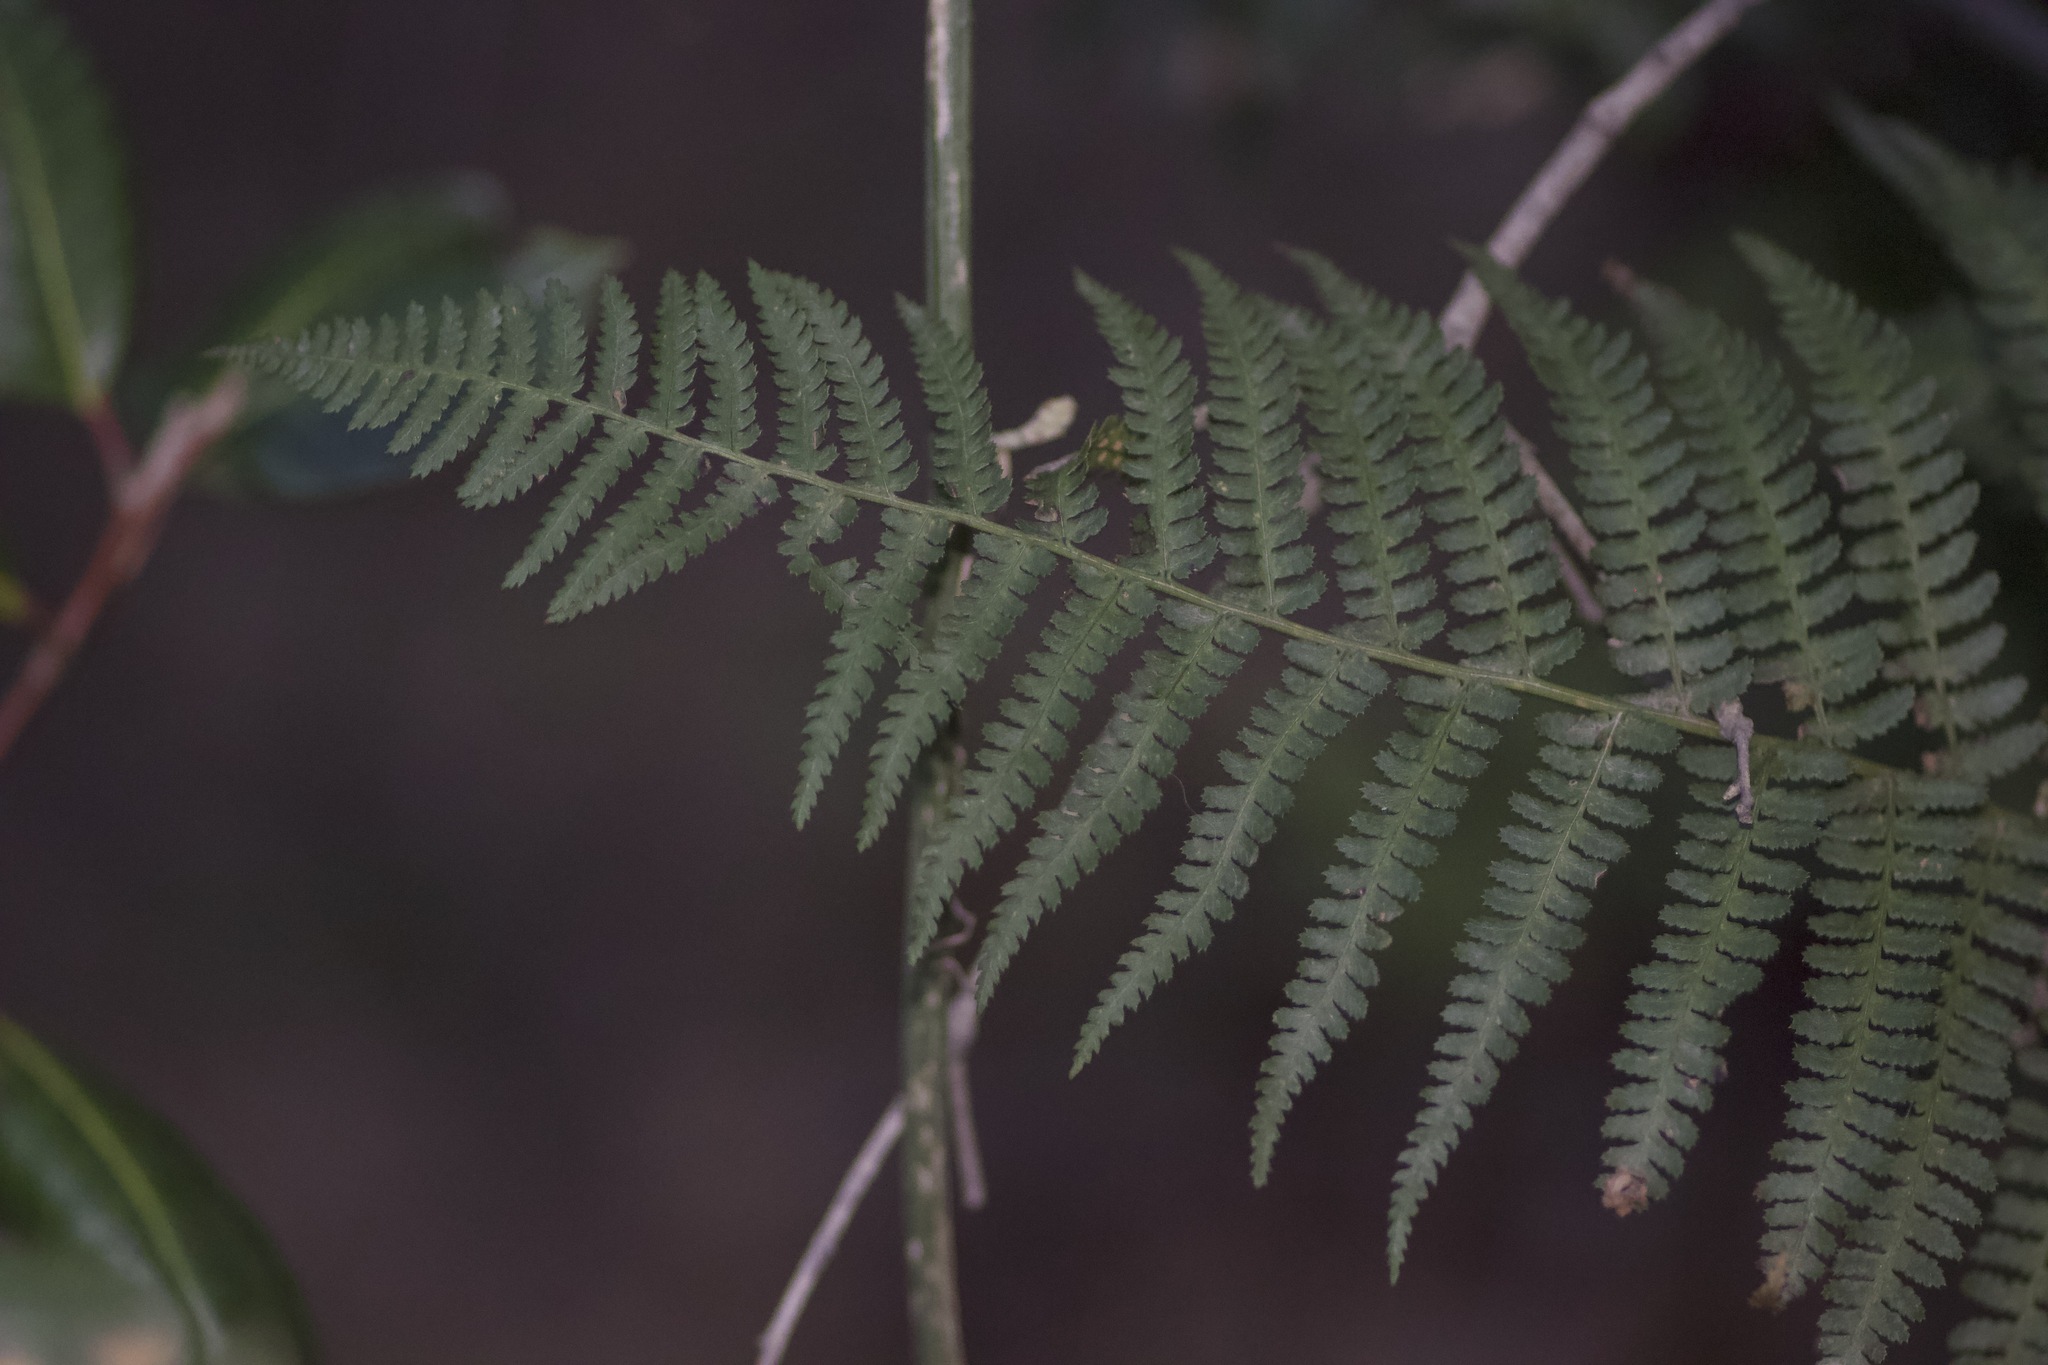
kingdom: Plantae
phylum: Tracheophyta
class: Polypodiopsida
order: Polypodiales
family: Dryopteridaceae
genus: Dryopteris
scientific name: Dryopteris arguta
